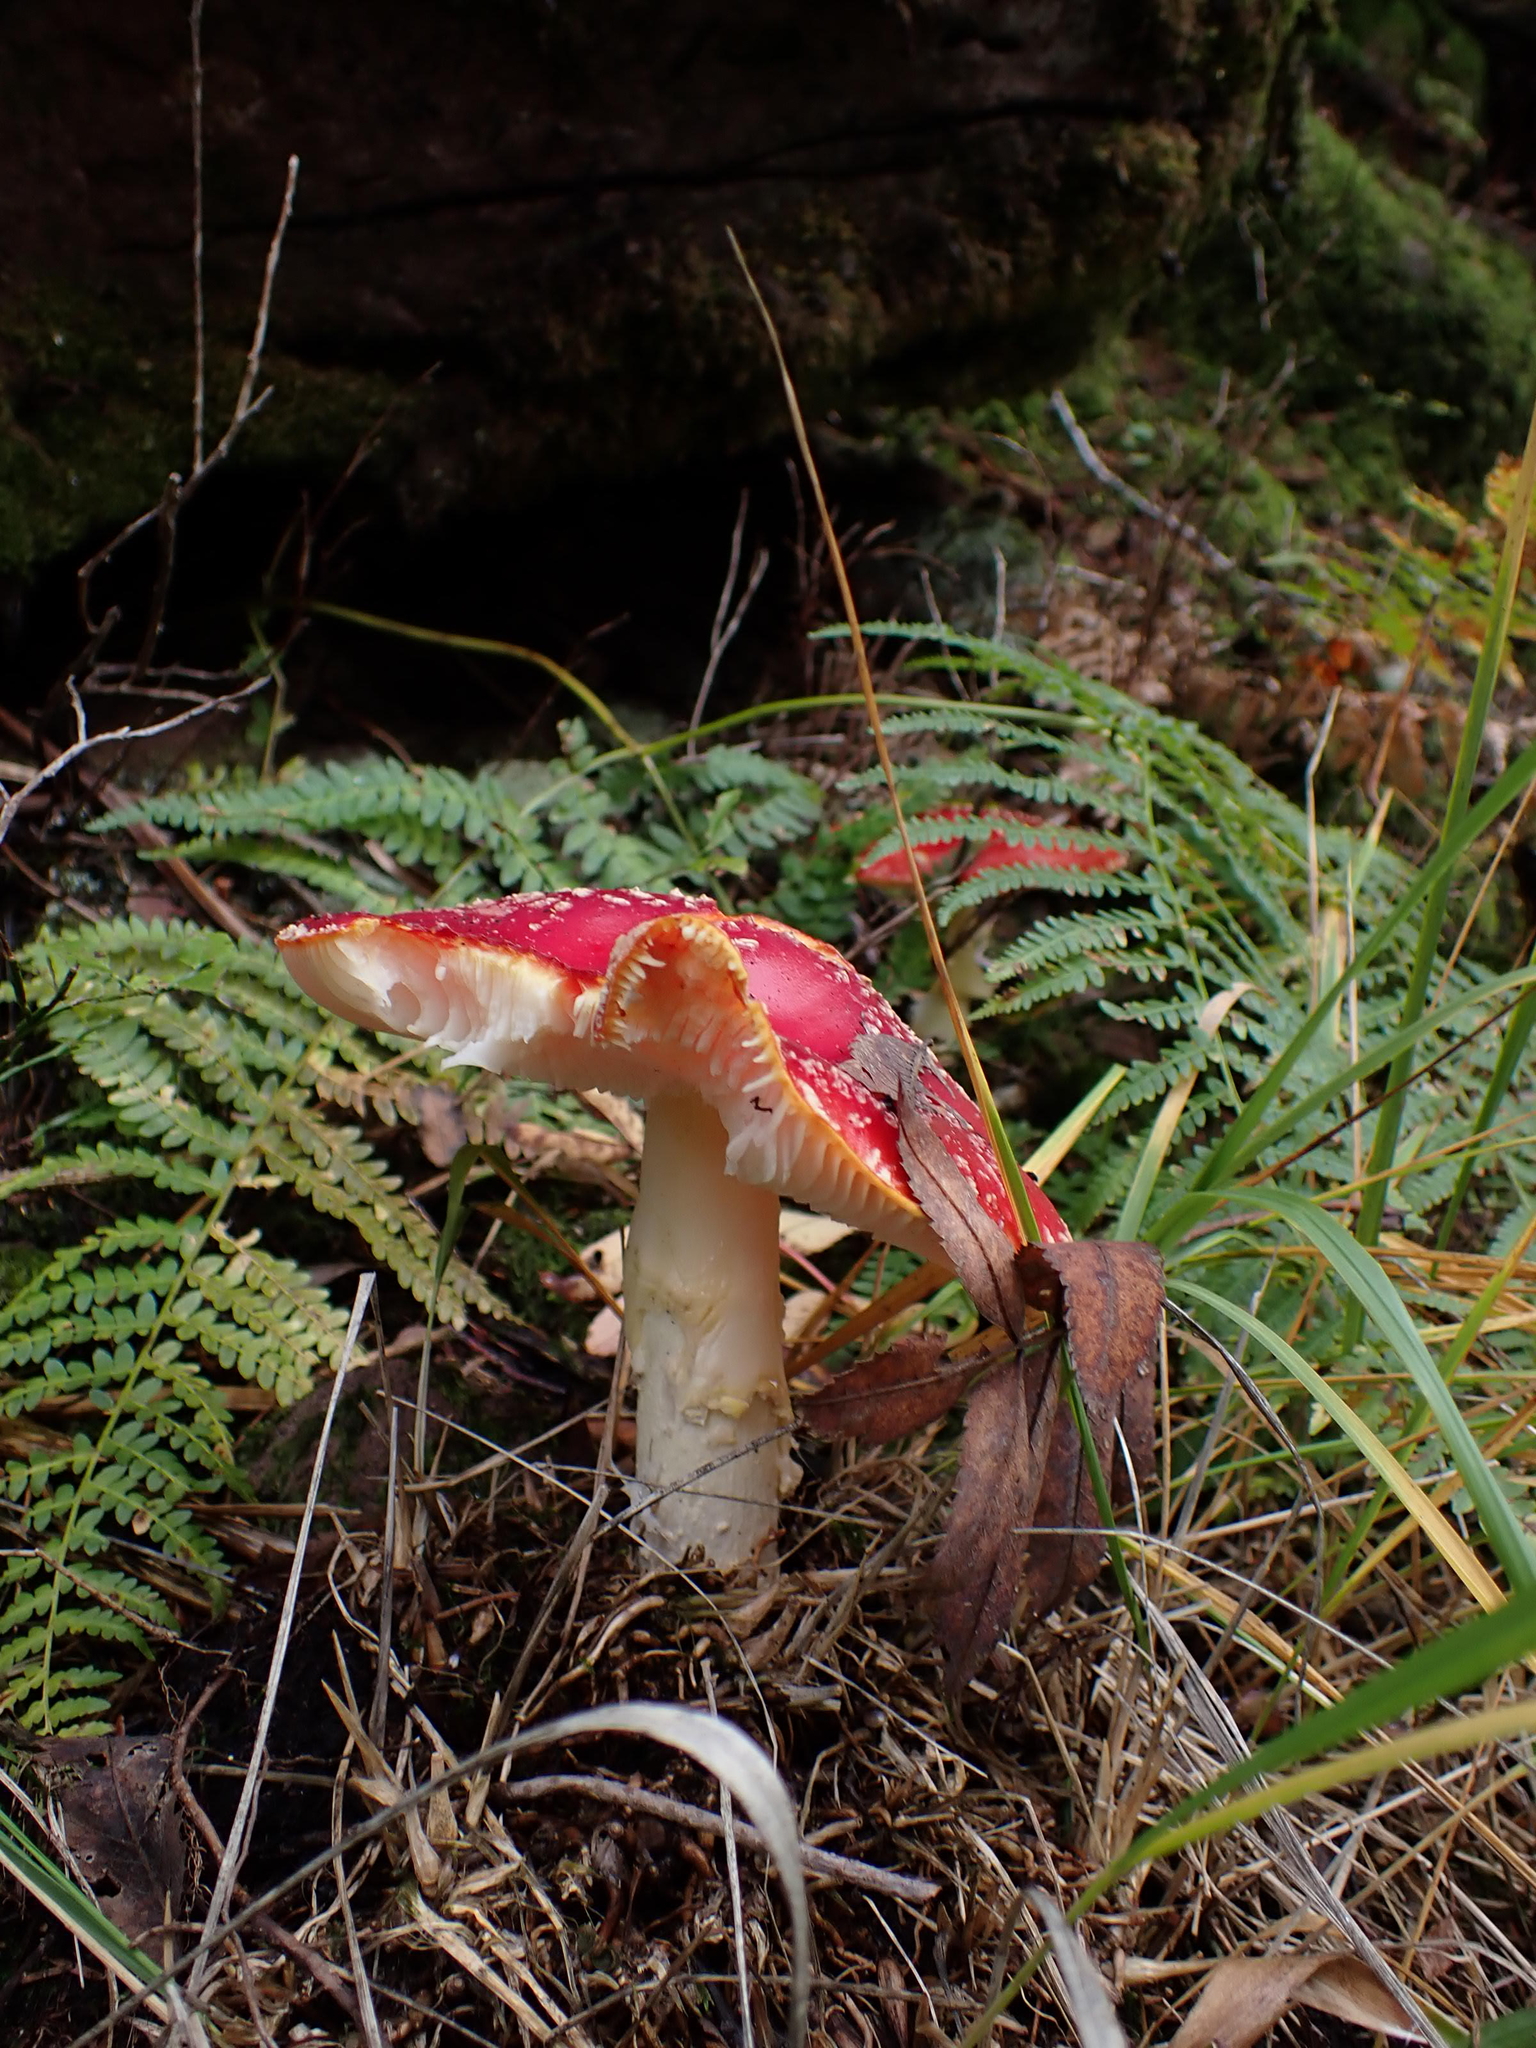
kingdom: Fungi
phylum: Basidiomycota
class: Agaricomycetes
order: Agaricales
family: Amanitaceae
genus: Amanita
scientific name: Amanita muscaria
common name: Fly agaric
